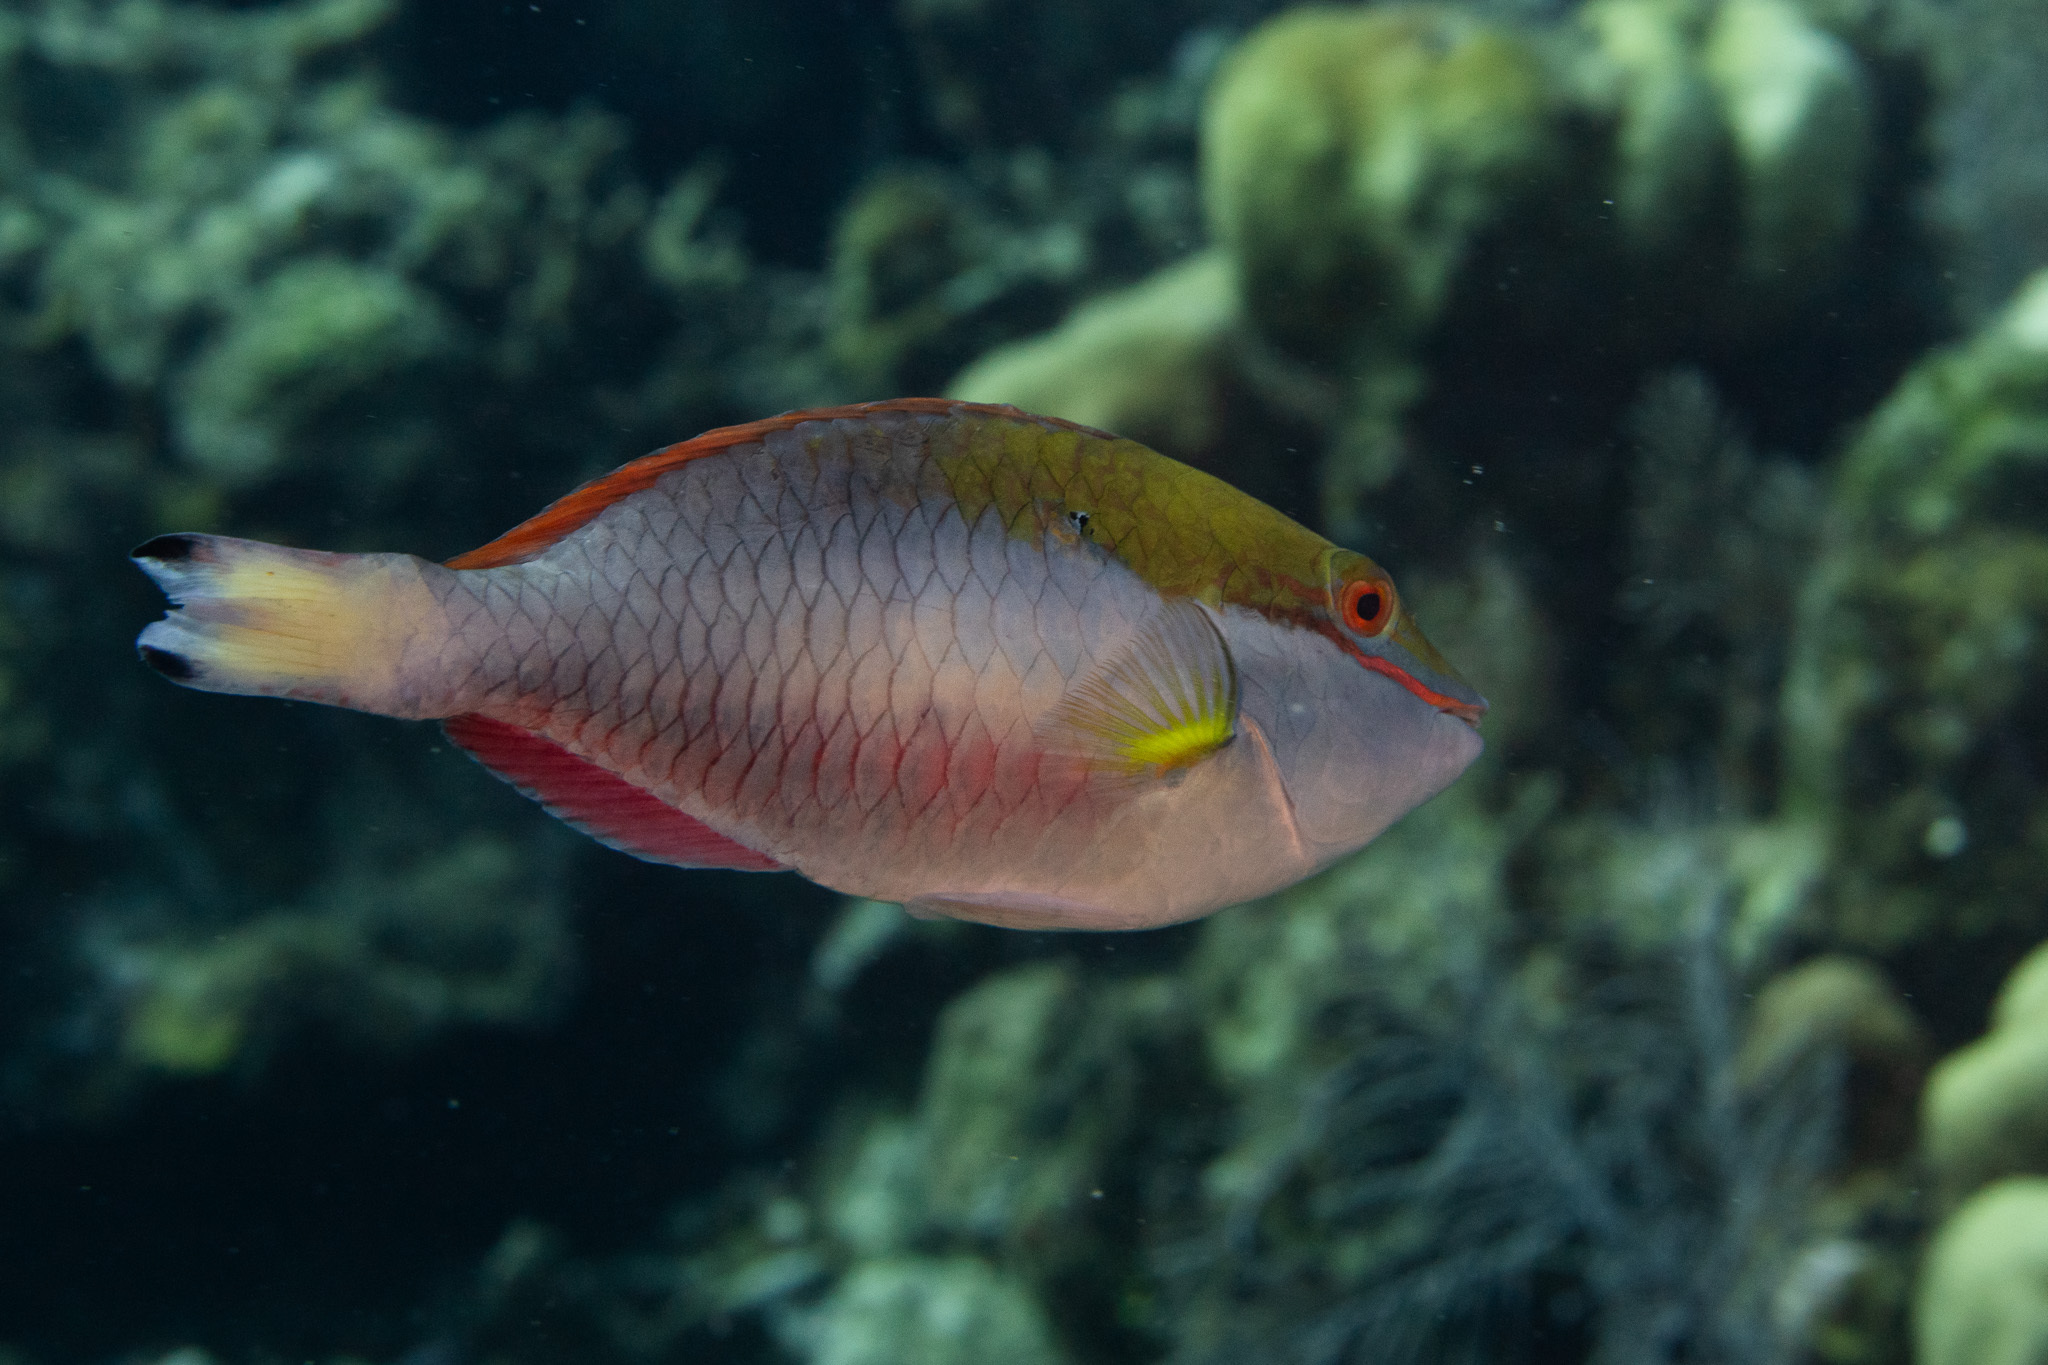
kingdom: Animalia
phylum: Chordata
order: Perciformes
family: Scaridae
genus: Sparisoma
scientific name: Sparisoma aurofrenatum
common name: Redband parrotfish
